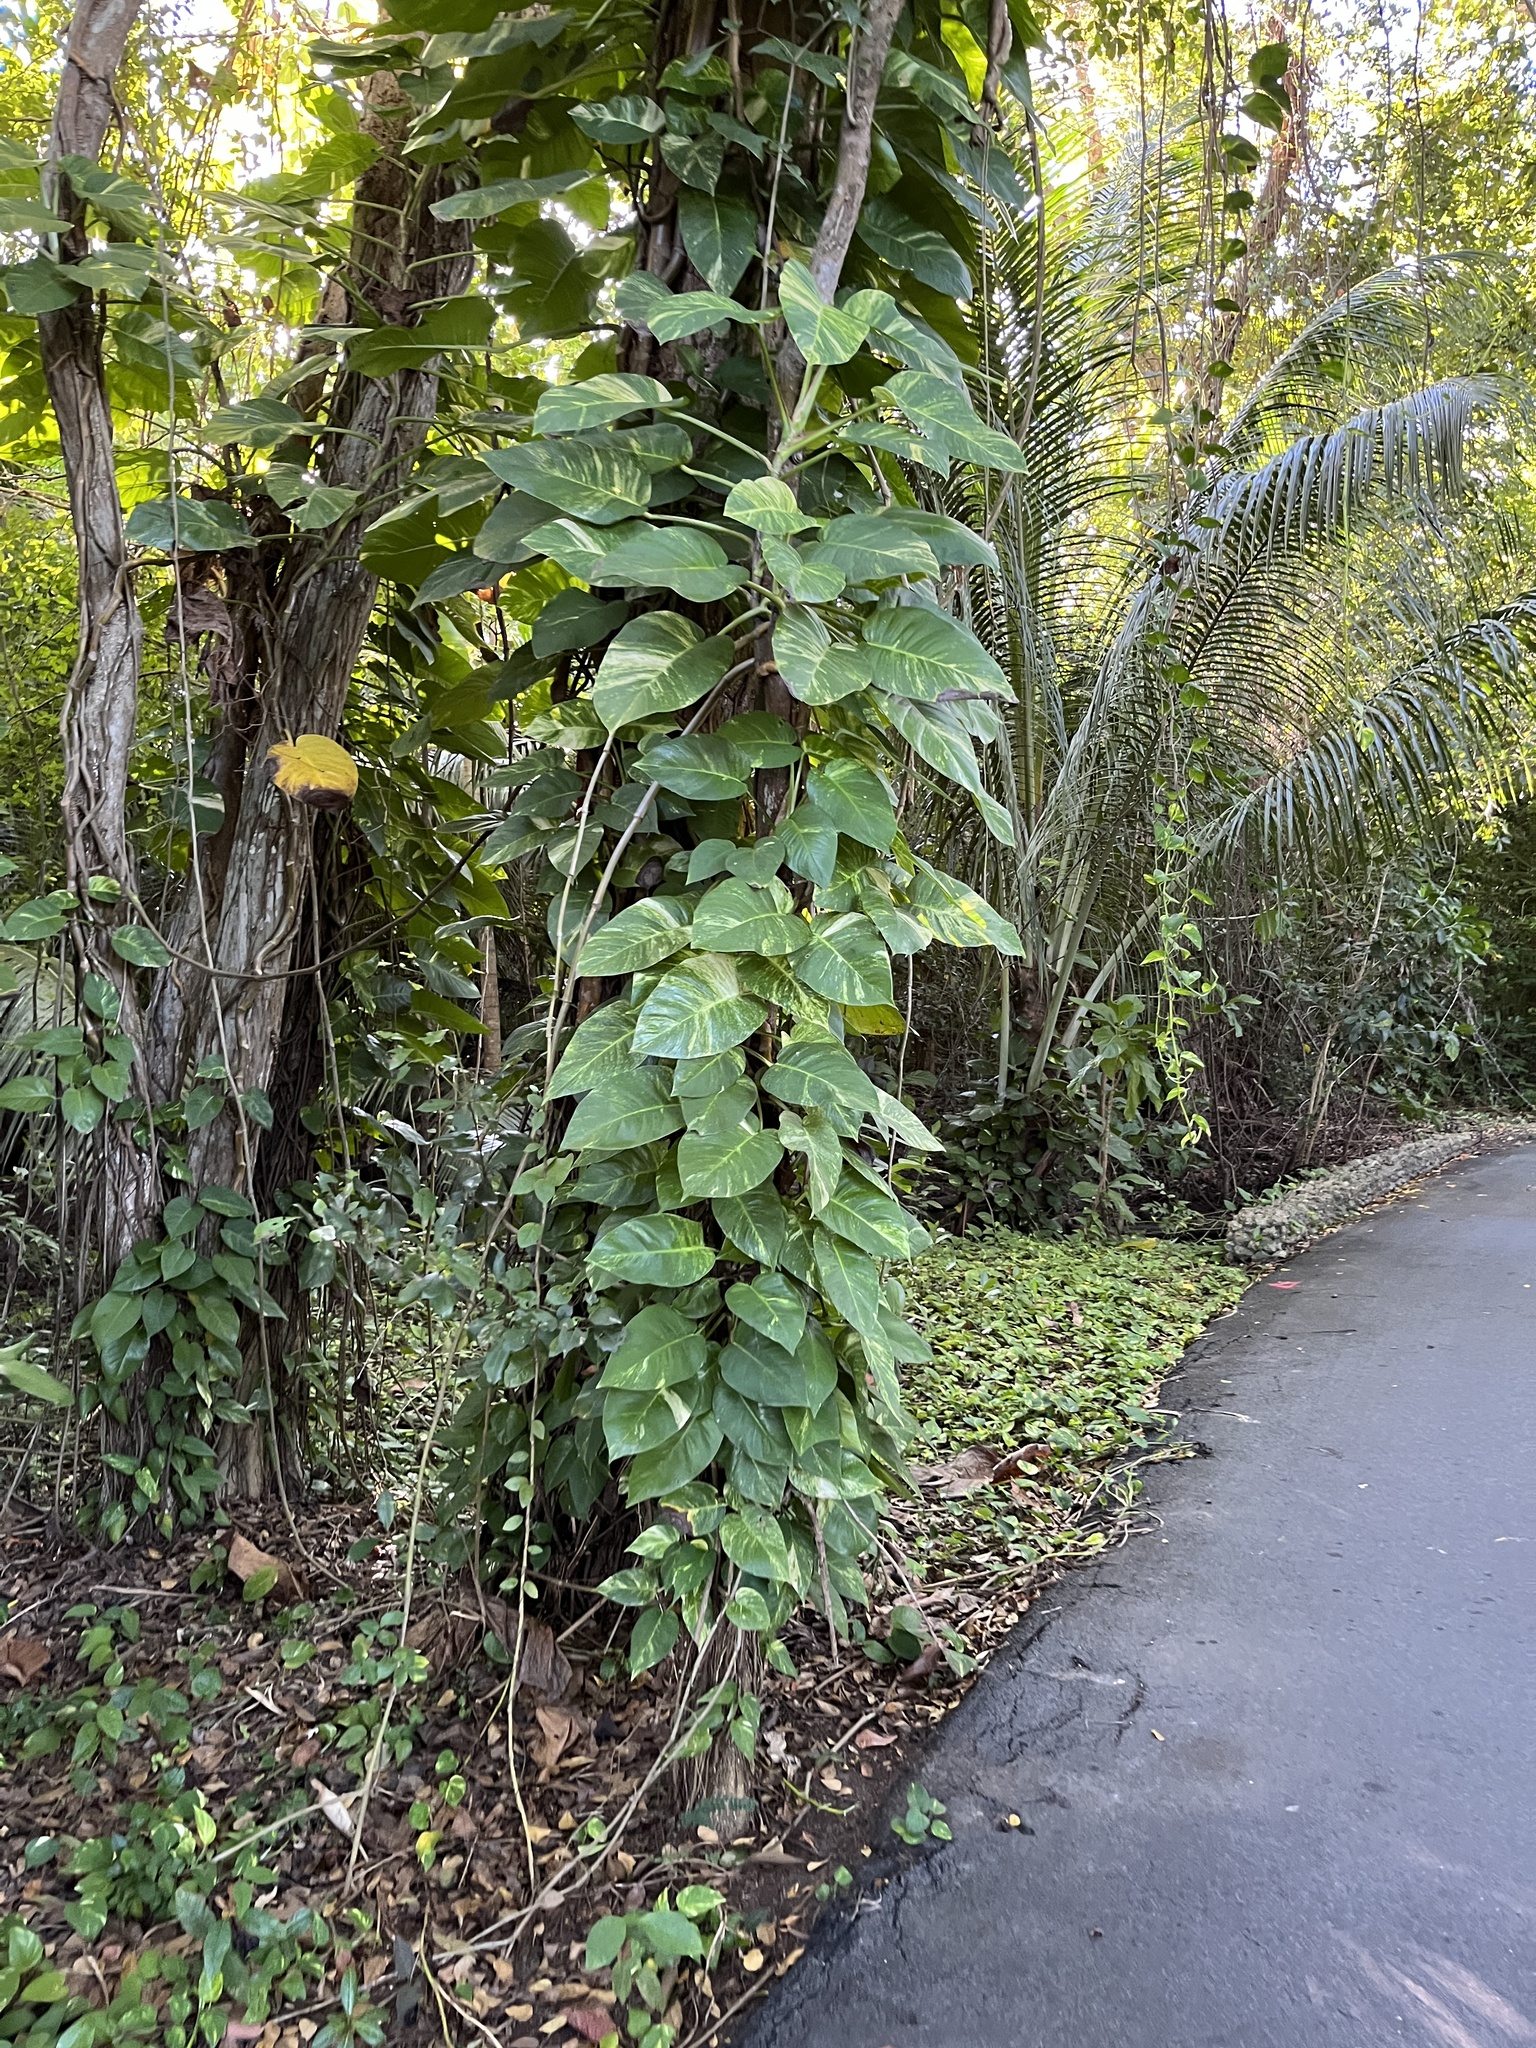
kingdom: Plantae
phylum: Tracheophyta
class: Liliopsida
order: Alismatales
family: Araceae
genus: Epipremnum
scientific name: Epipremnum aureum
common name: Golden hunter's-robe
